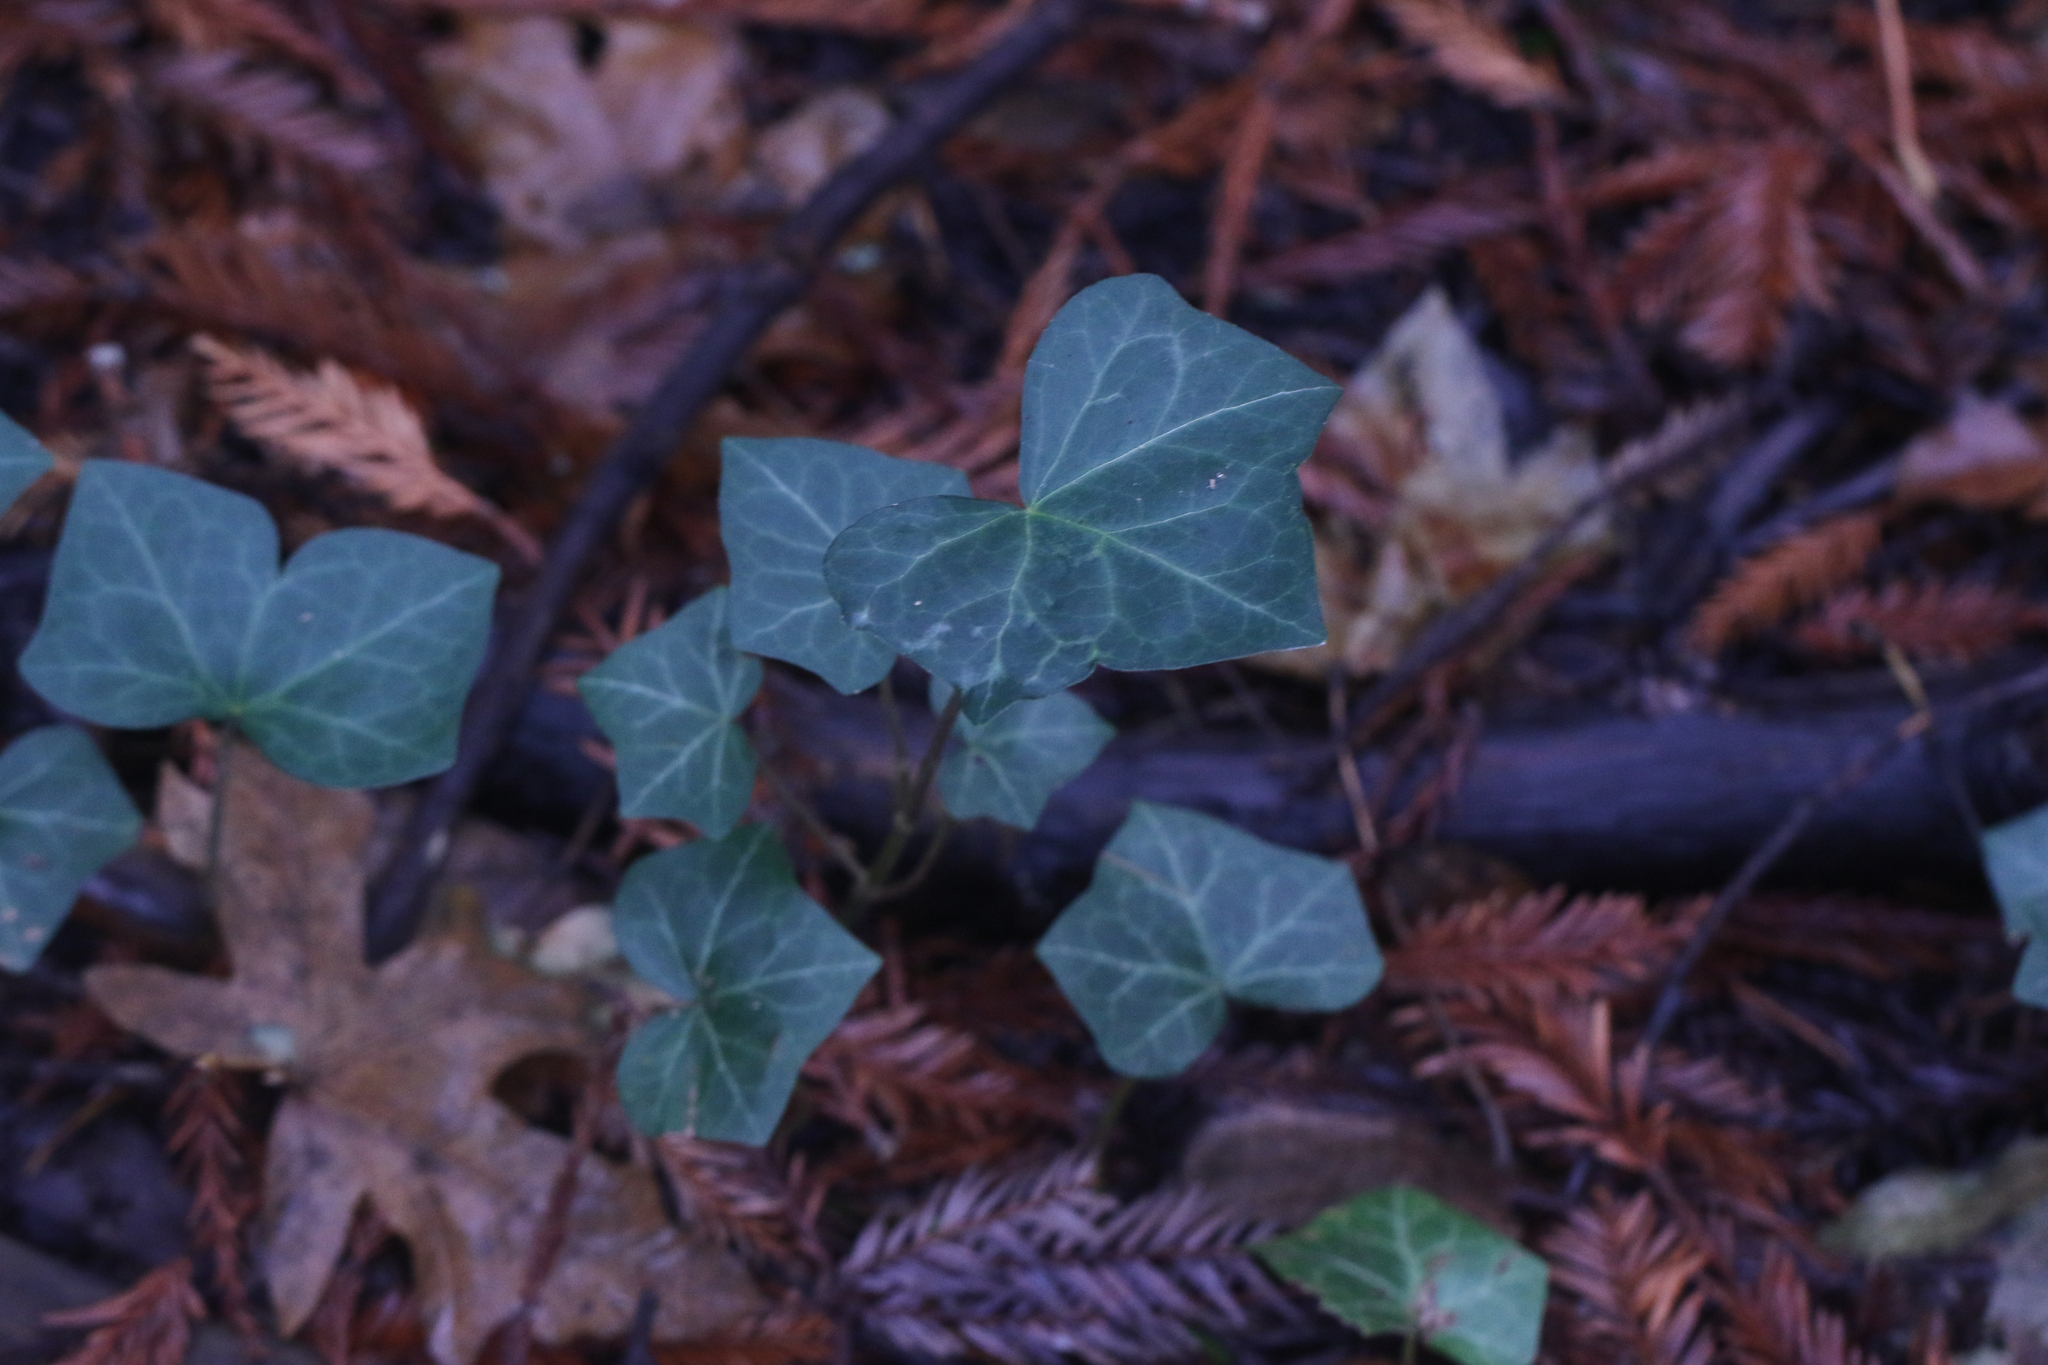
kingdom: Plantae
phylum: Tracheophyta
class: Magnoliopsida
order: Apiales
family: Araliaceae
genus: Hedera
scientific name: Hedera helix
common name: Ivy
